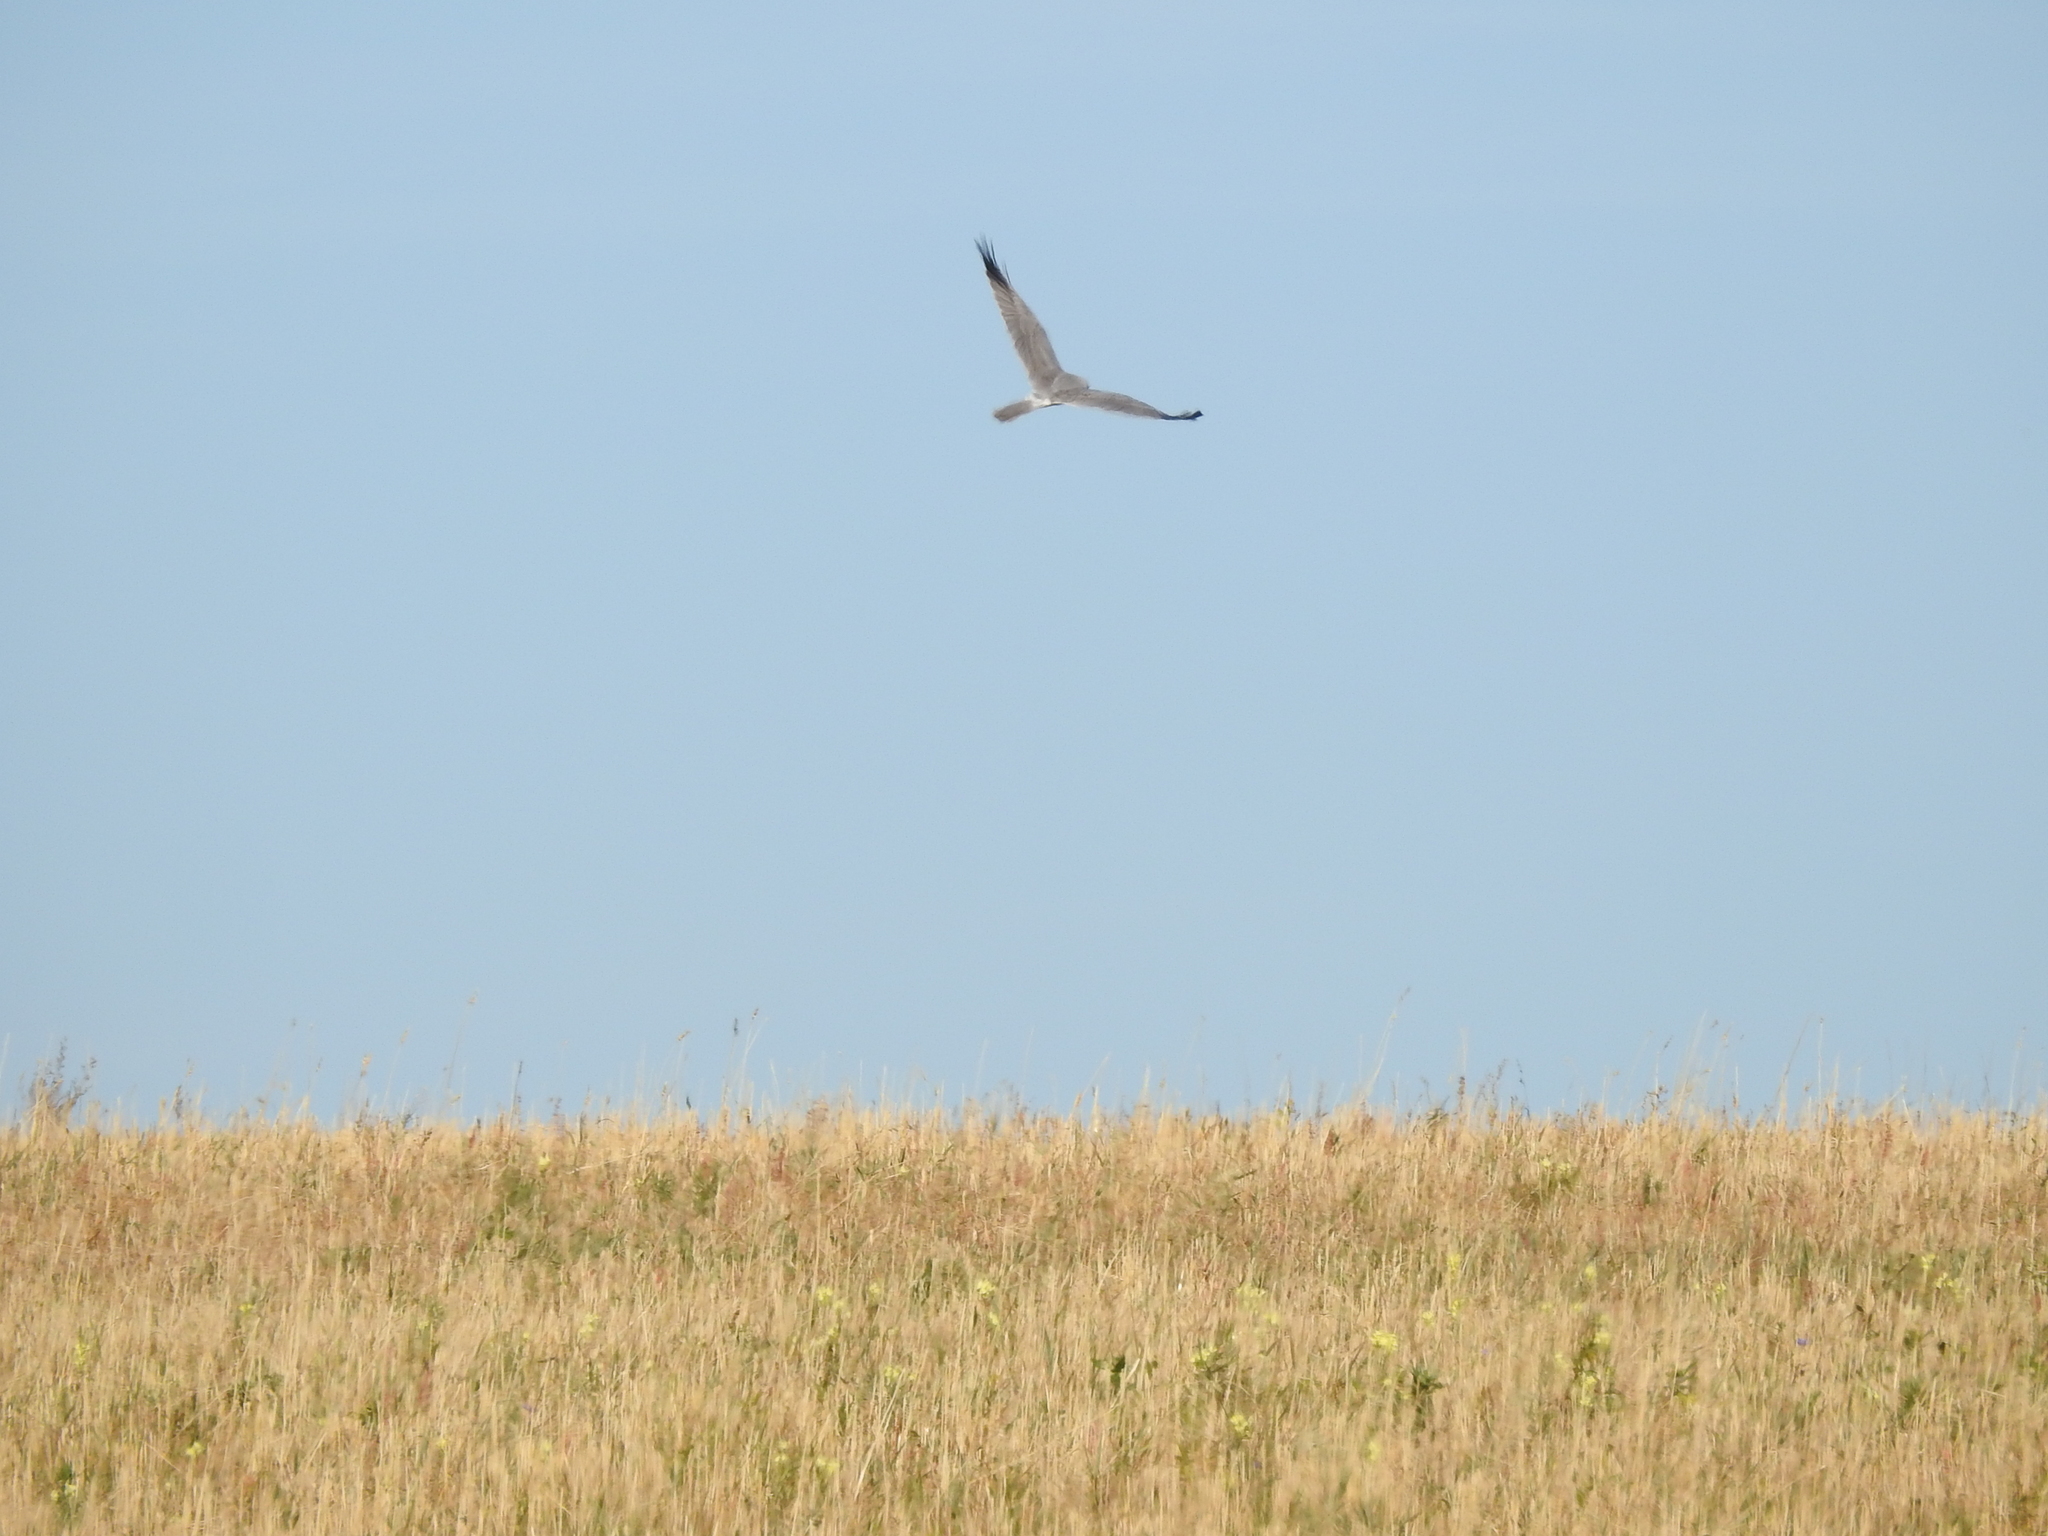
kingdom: Animalia
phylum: Chordata
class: Aves
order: Accipitriformes
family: Accipitridae
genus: Circus
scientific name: Circus macrourus
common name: Pallid harrier
